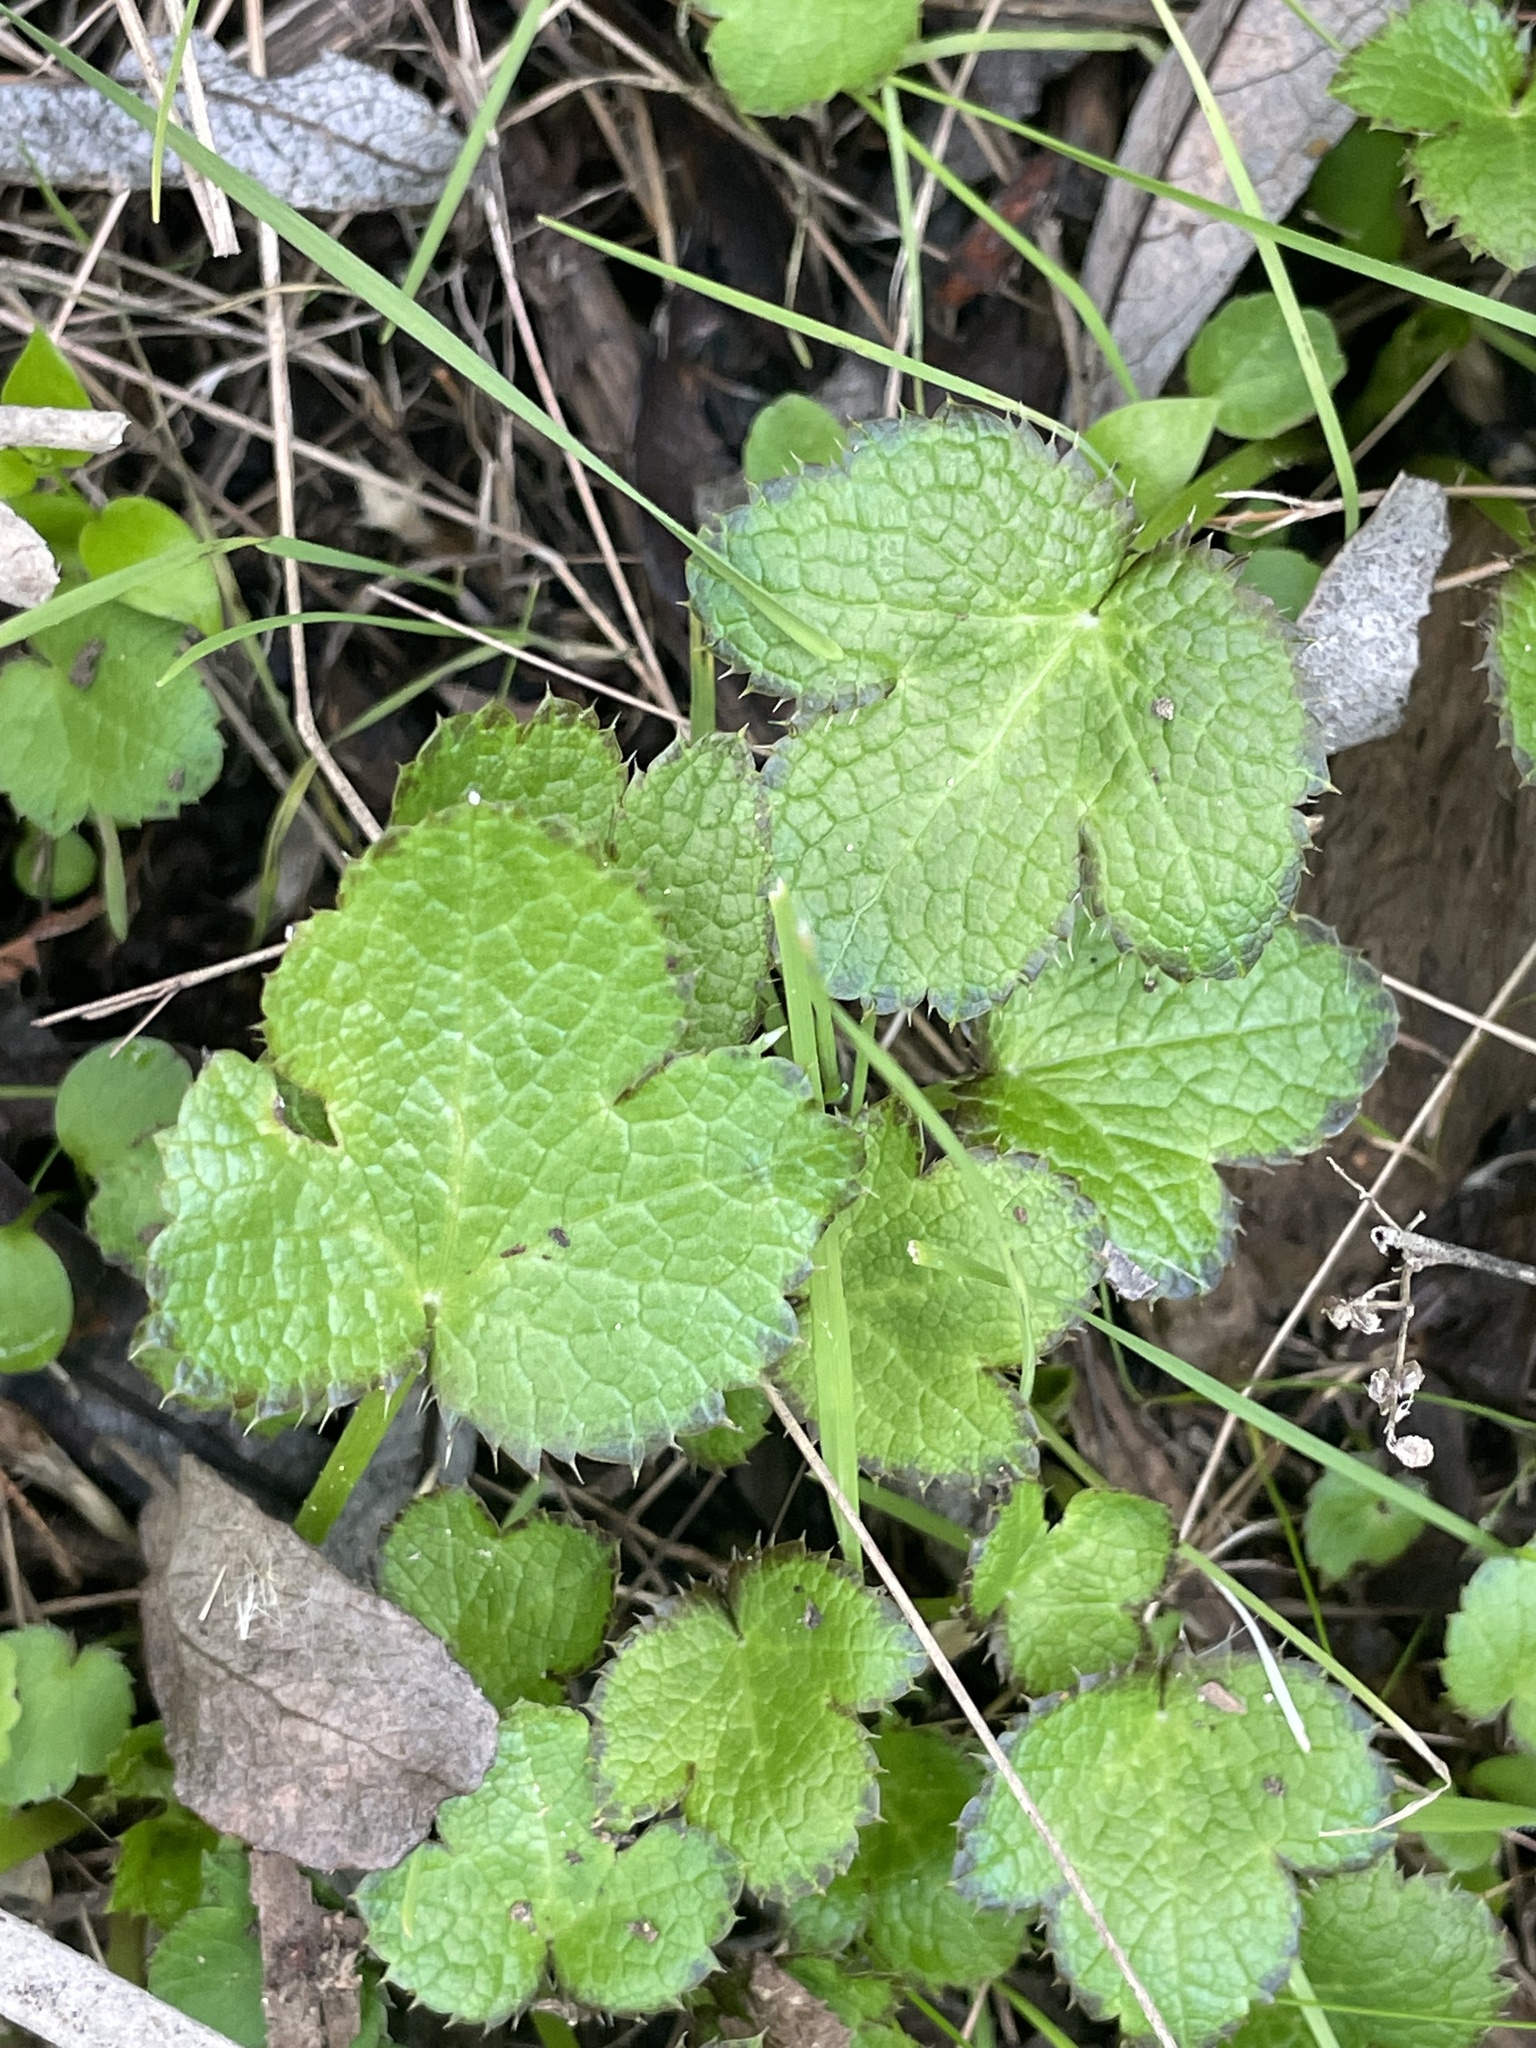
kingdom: Plantae
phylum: Tracheophyta
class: Magnoliopsida
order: Apiales
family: Apiaceae
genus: Sanicula
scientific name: Sanicula crassicaulis
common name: Western snakeroot
